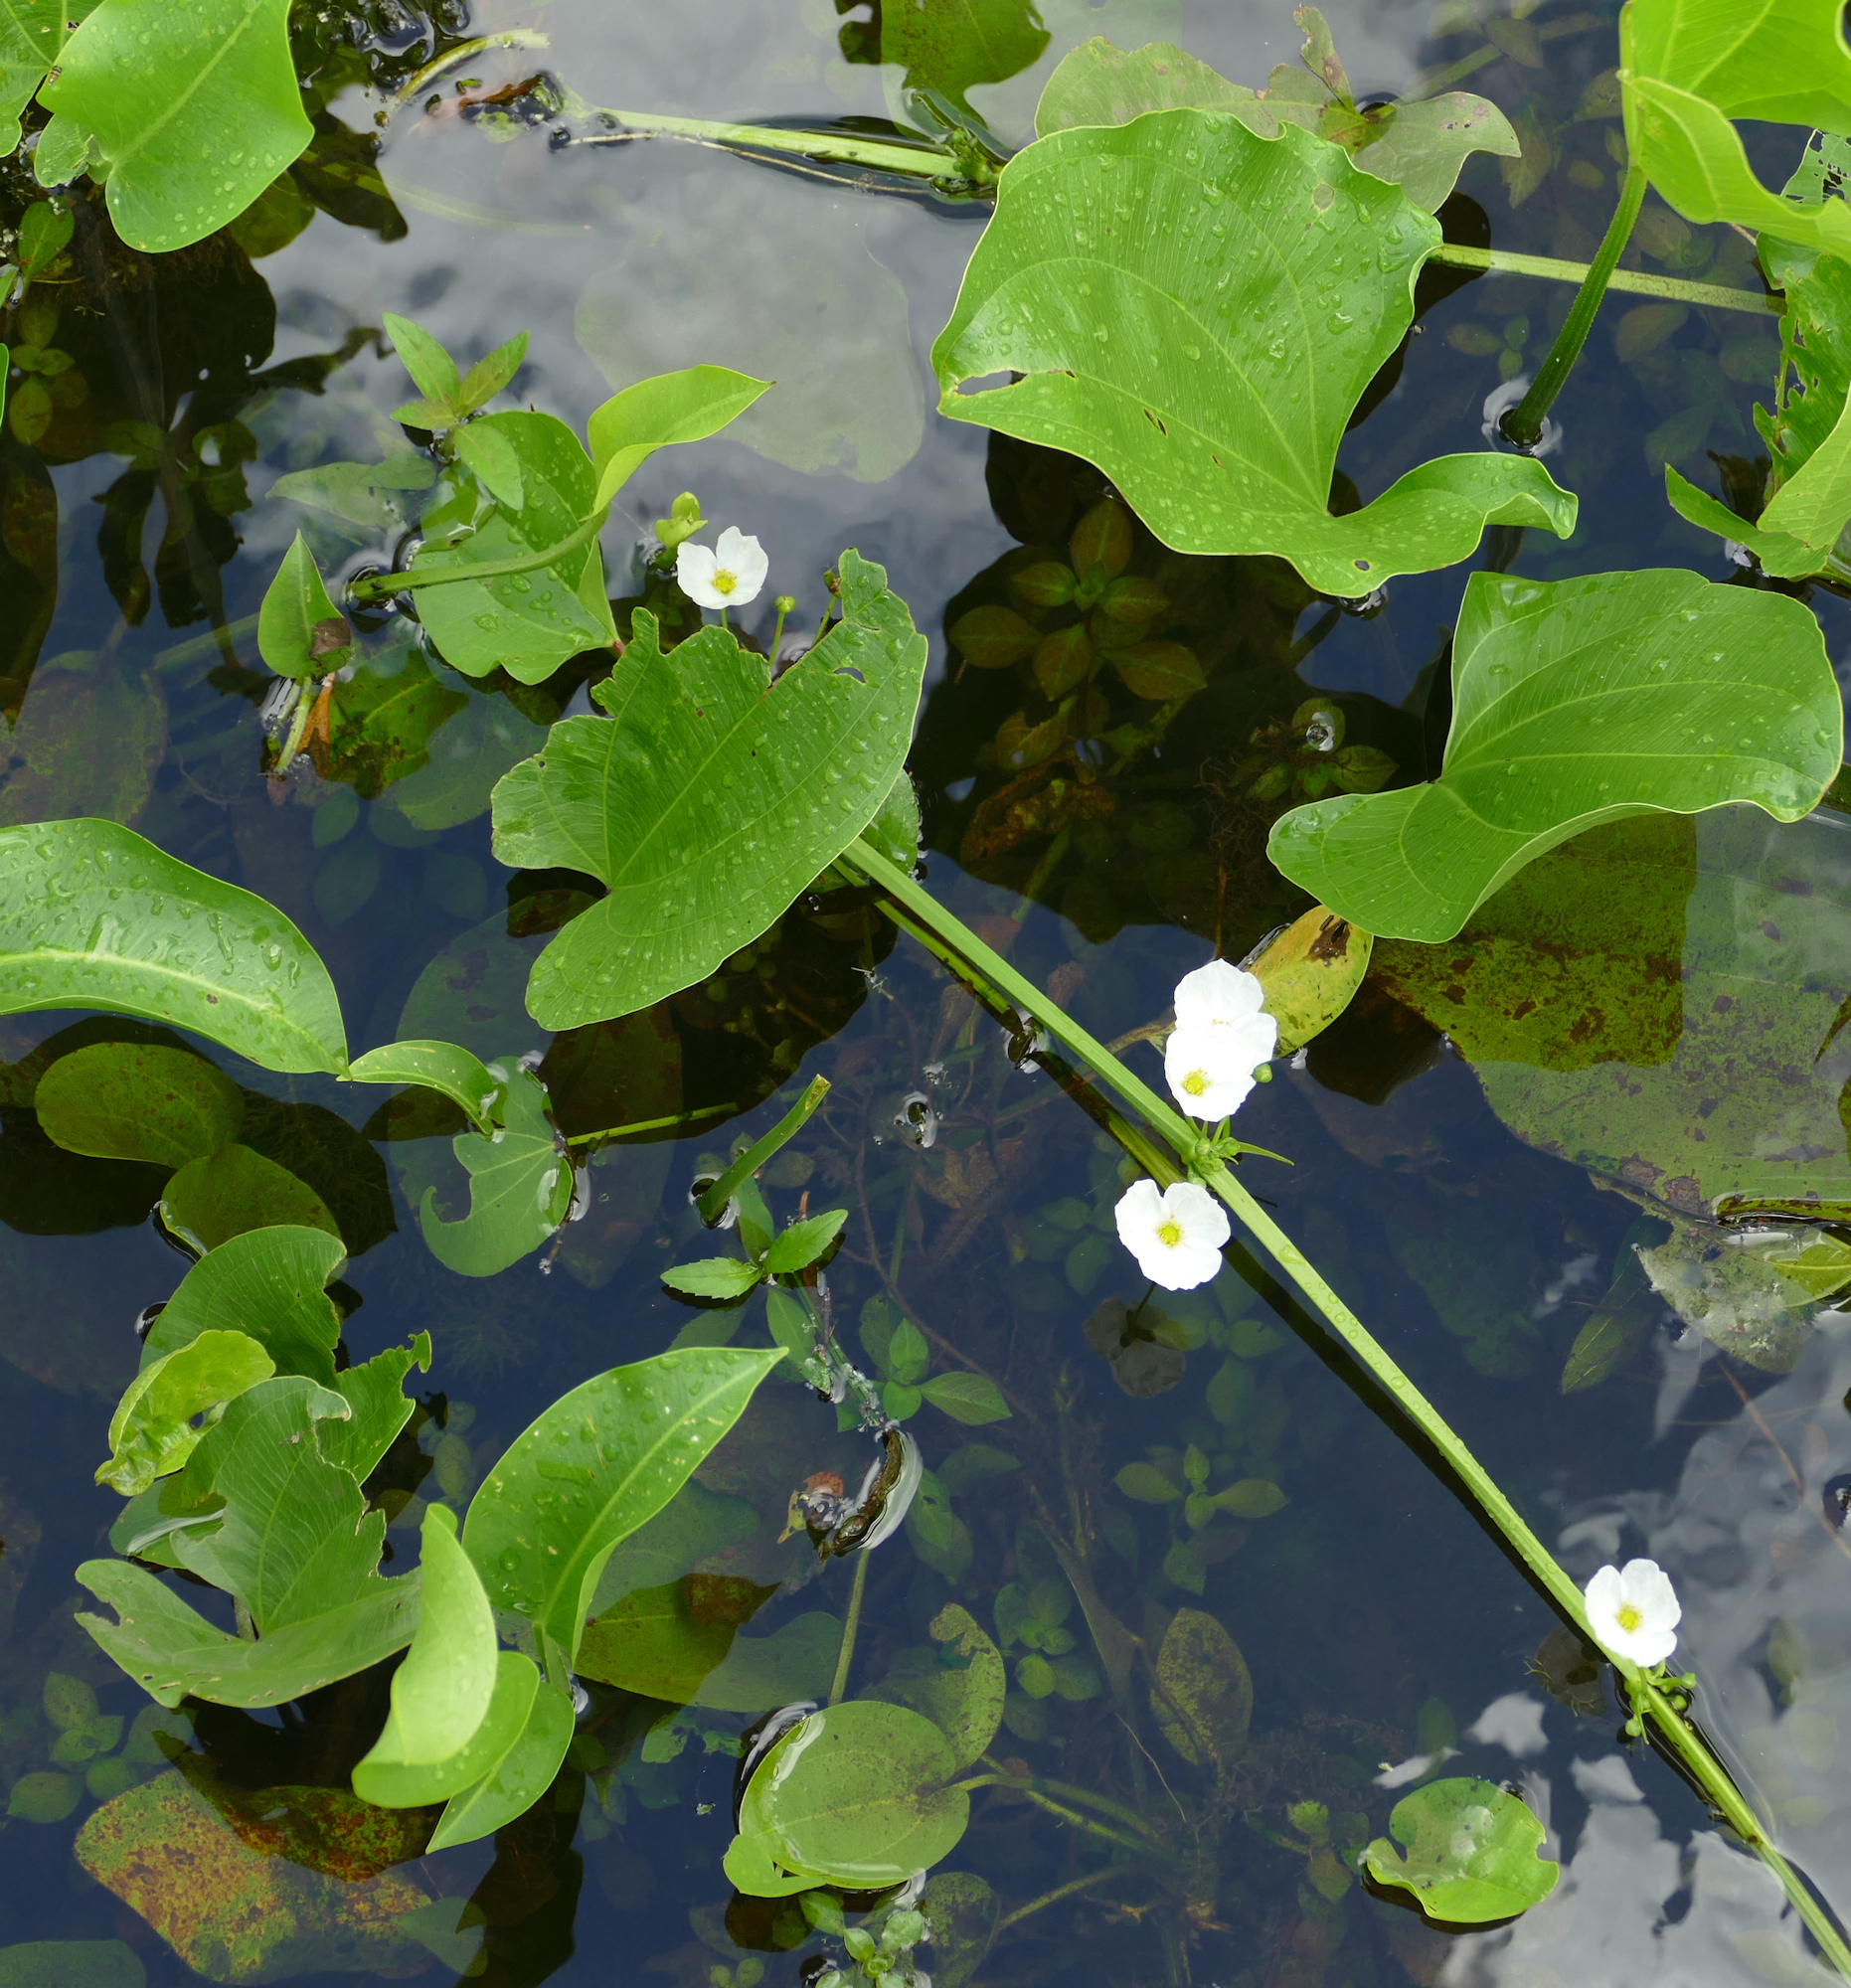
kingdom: Plantae
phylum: Tracheophyta
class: Liliopsida
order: Alismatales
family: Alismataceae
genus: Aquarius
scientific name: Aquarius cordifolius
